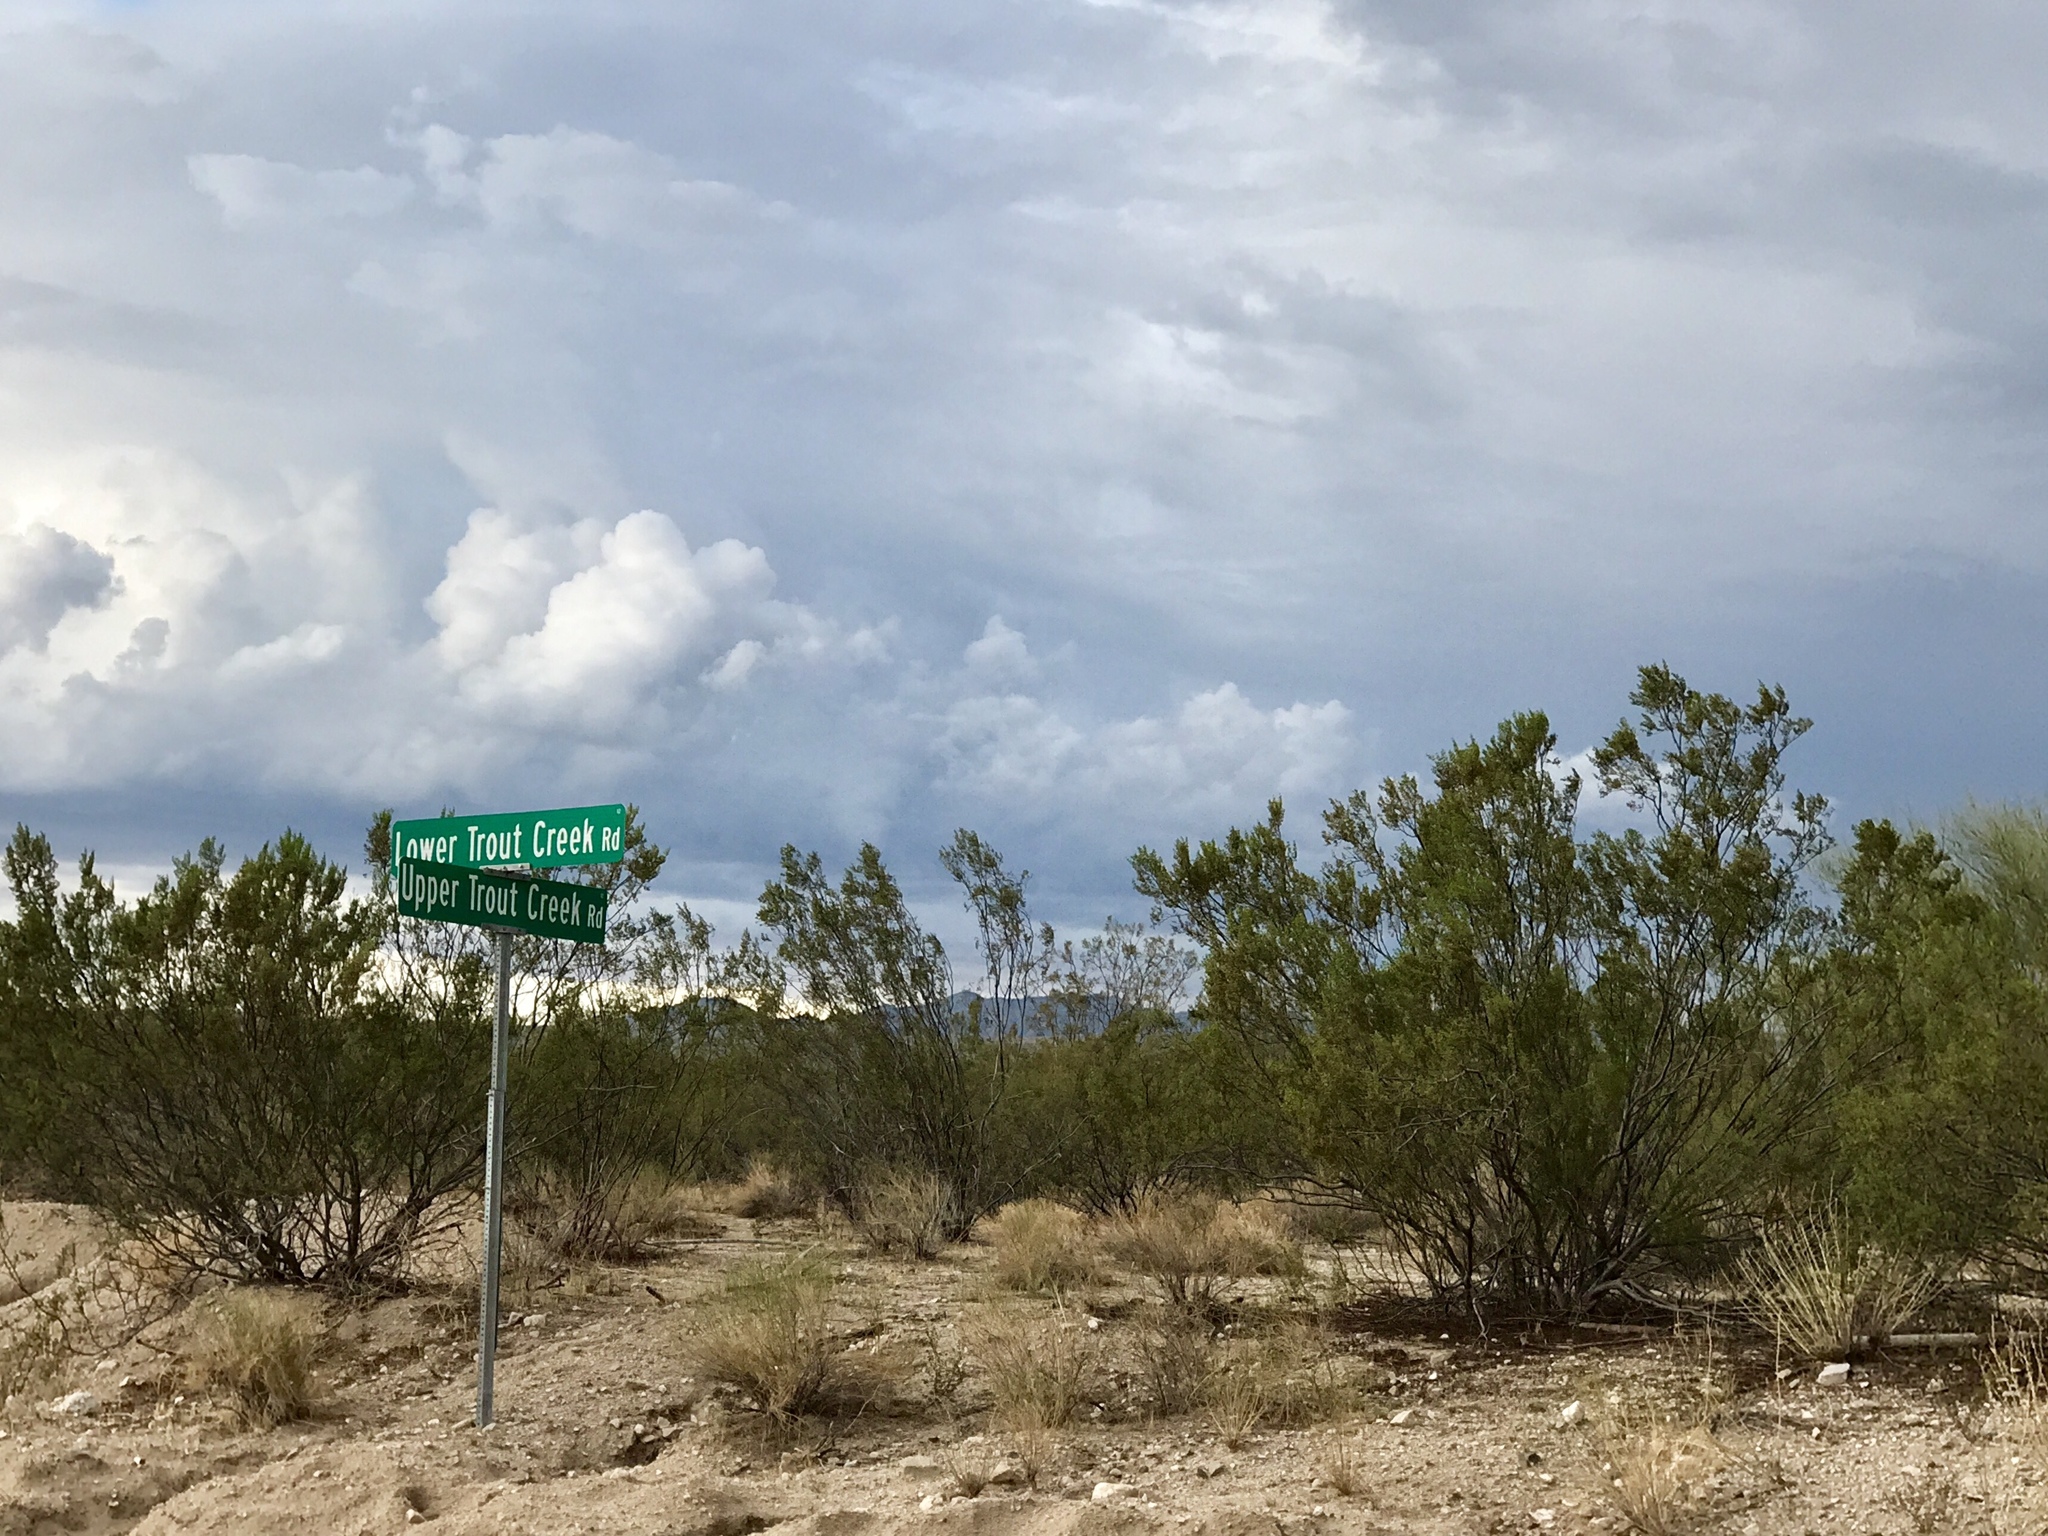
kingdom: Plantae
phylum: Tracheophyta
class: Magnoliopsida
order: Zygophyllales
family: Zygophyllaceae
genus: Larrea
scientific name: Larrea tridentata
